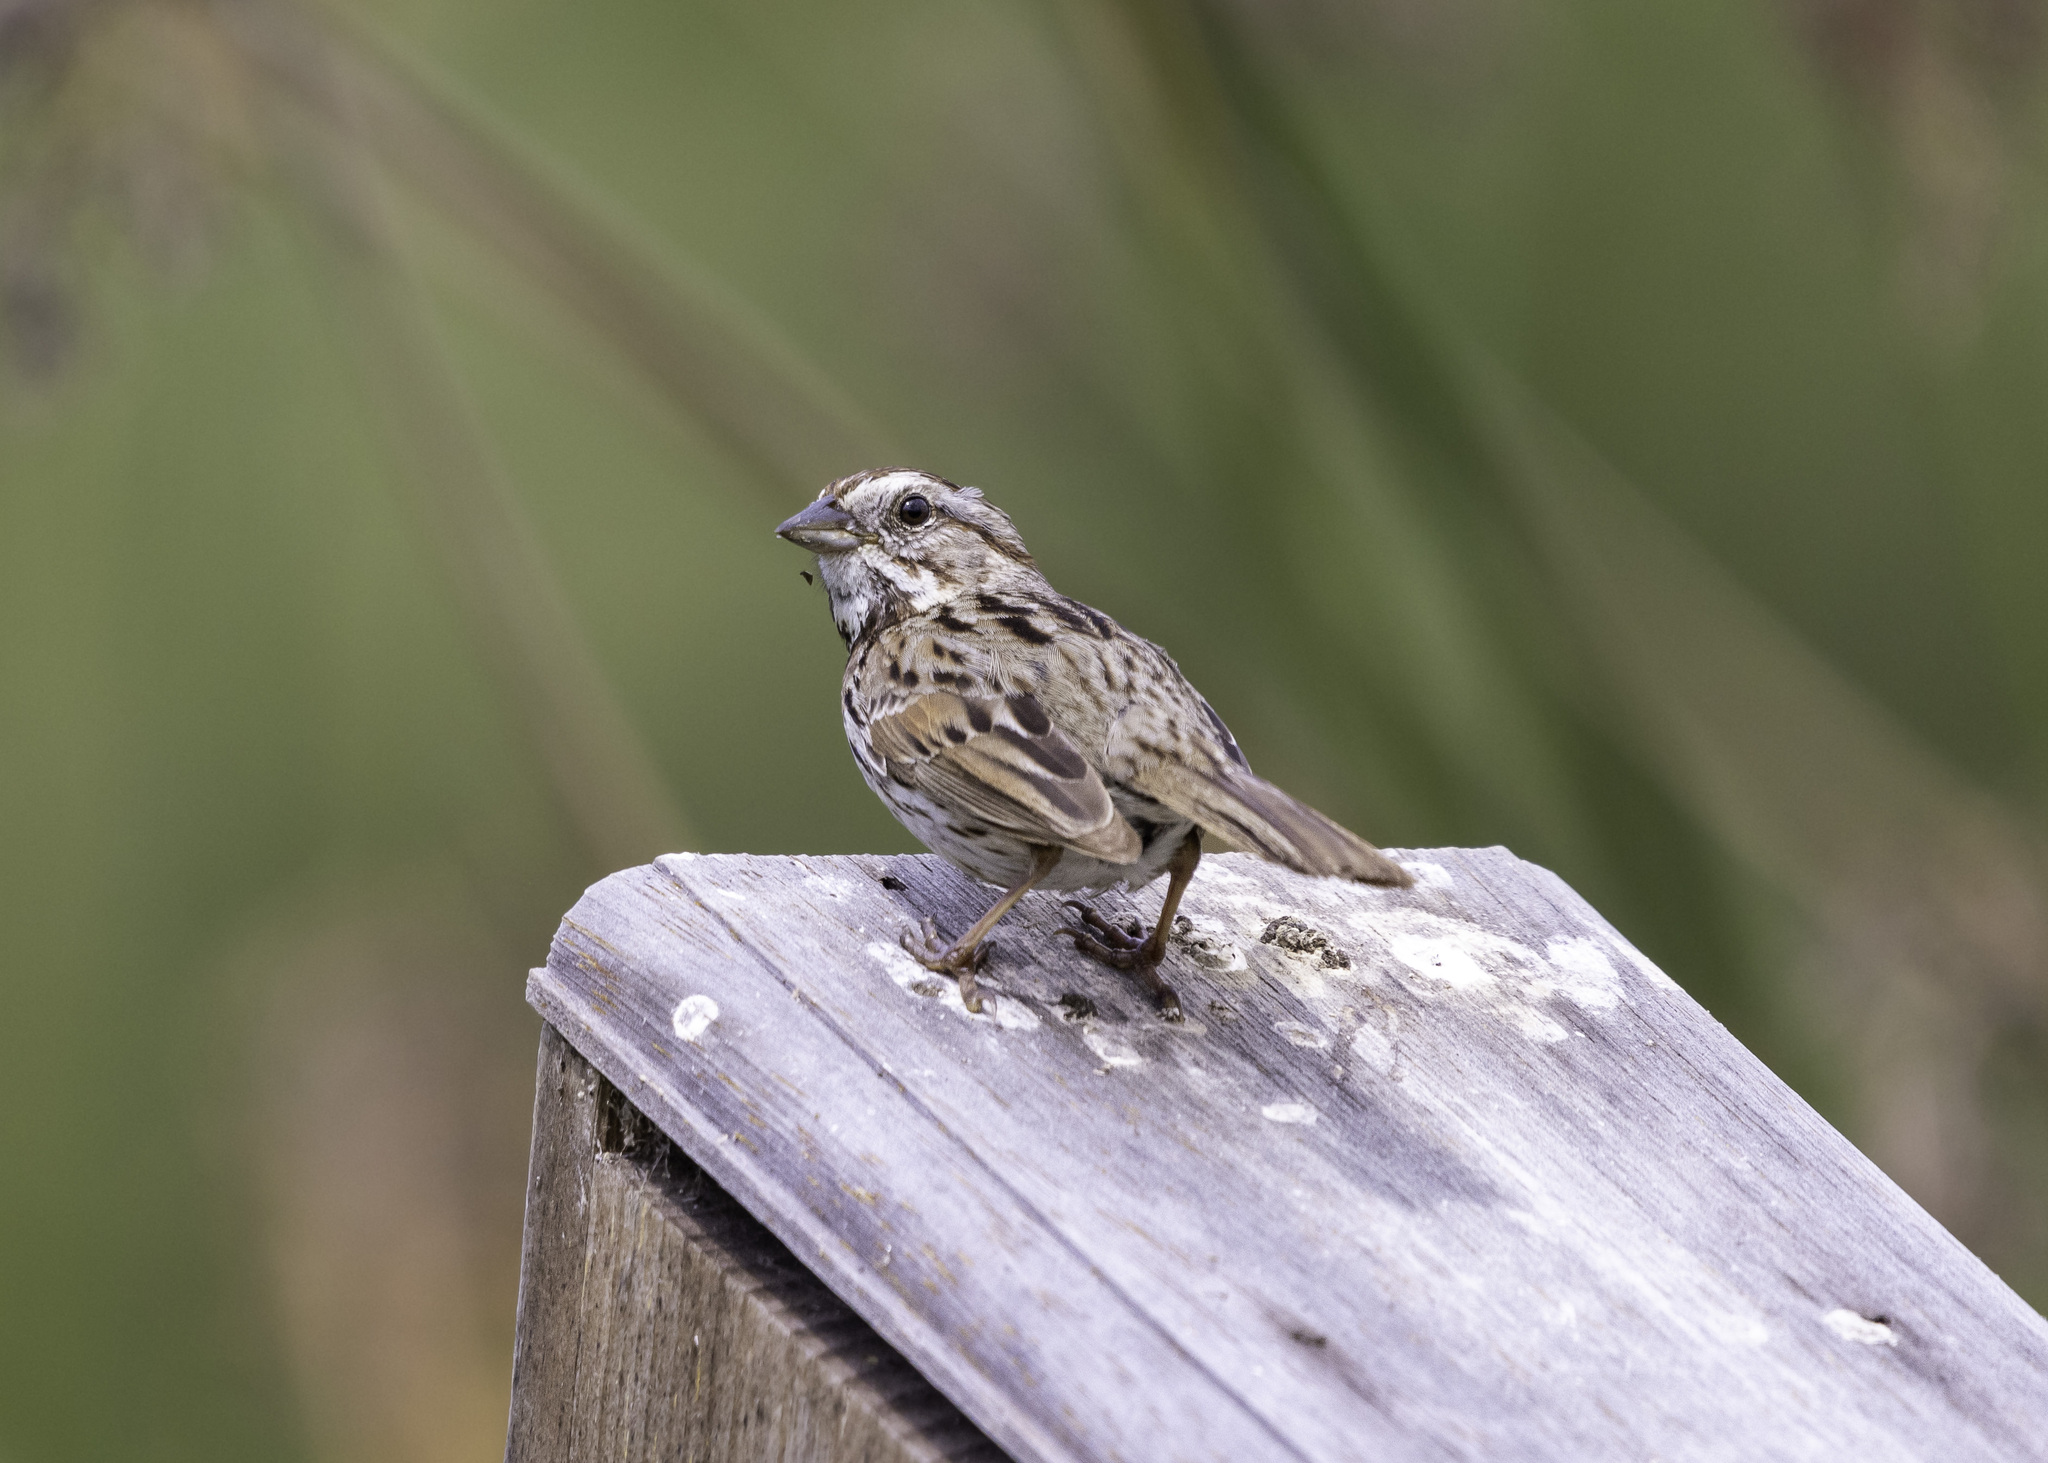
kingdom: Animalia
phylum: Chordata
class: Aves
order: Passeriformes
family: Passerellidae
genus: Melospiza
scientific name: Melospiza melodia
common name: Song sparrow
